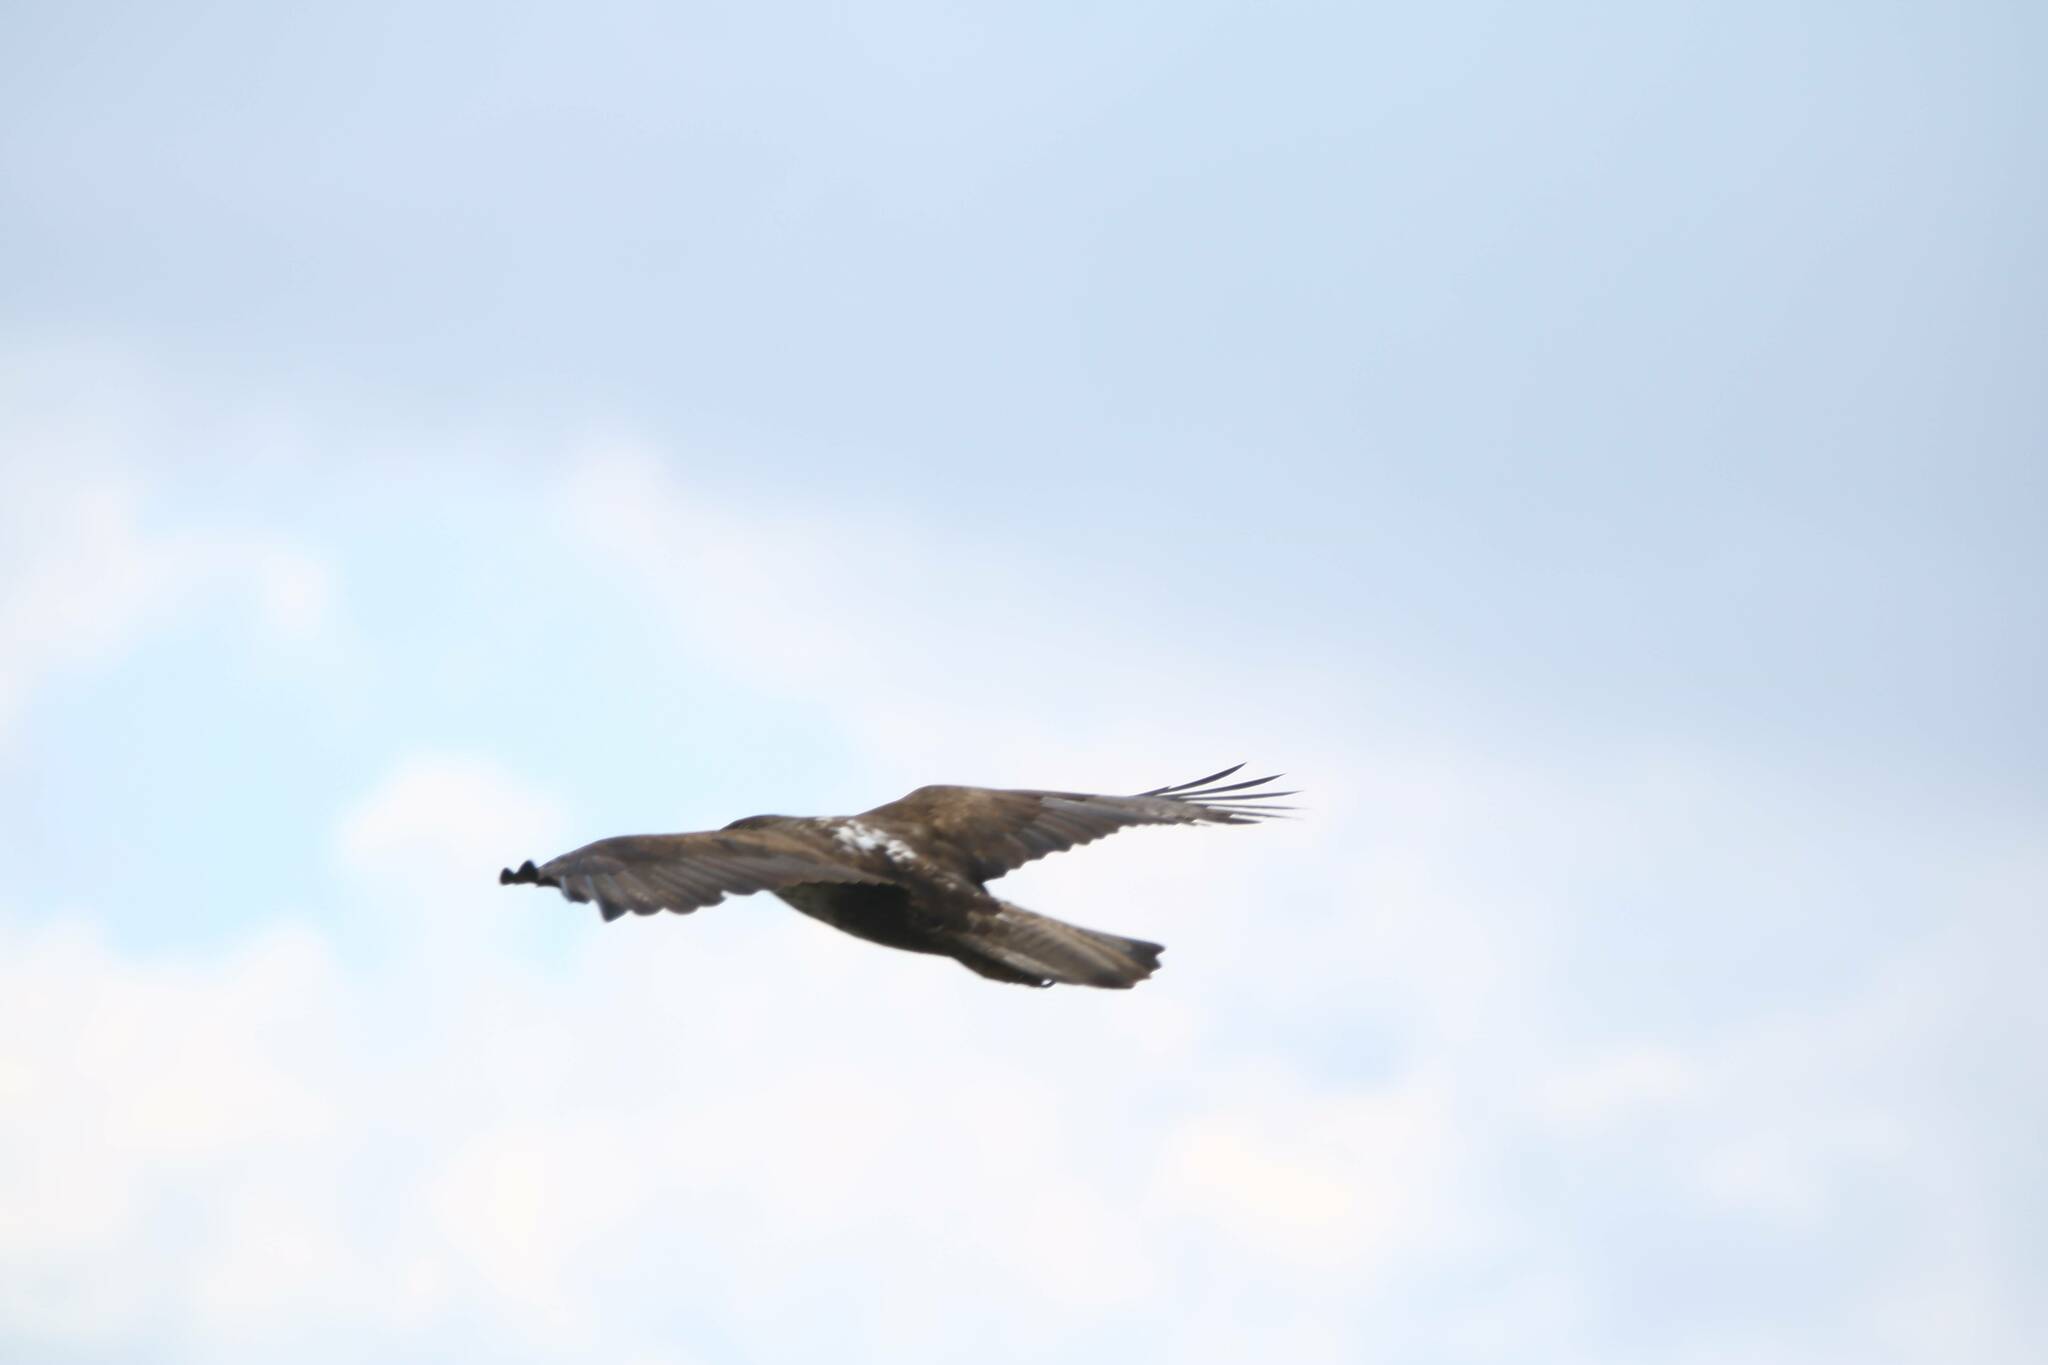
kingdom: Animalia
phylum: Chordata
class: Aves
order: Accipitriformes
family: Accipitridae
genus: Aquila
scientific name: Aquila fasciata
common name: Bonelli's eagle
